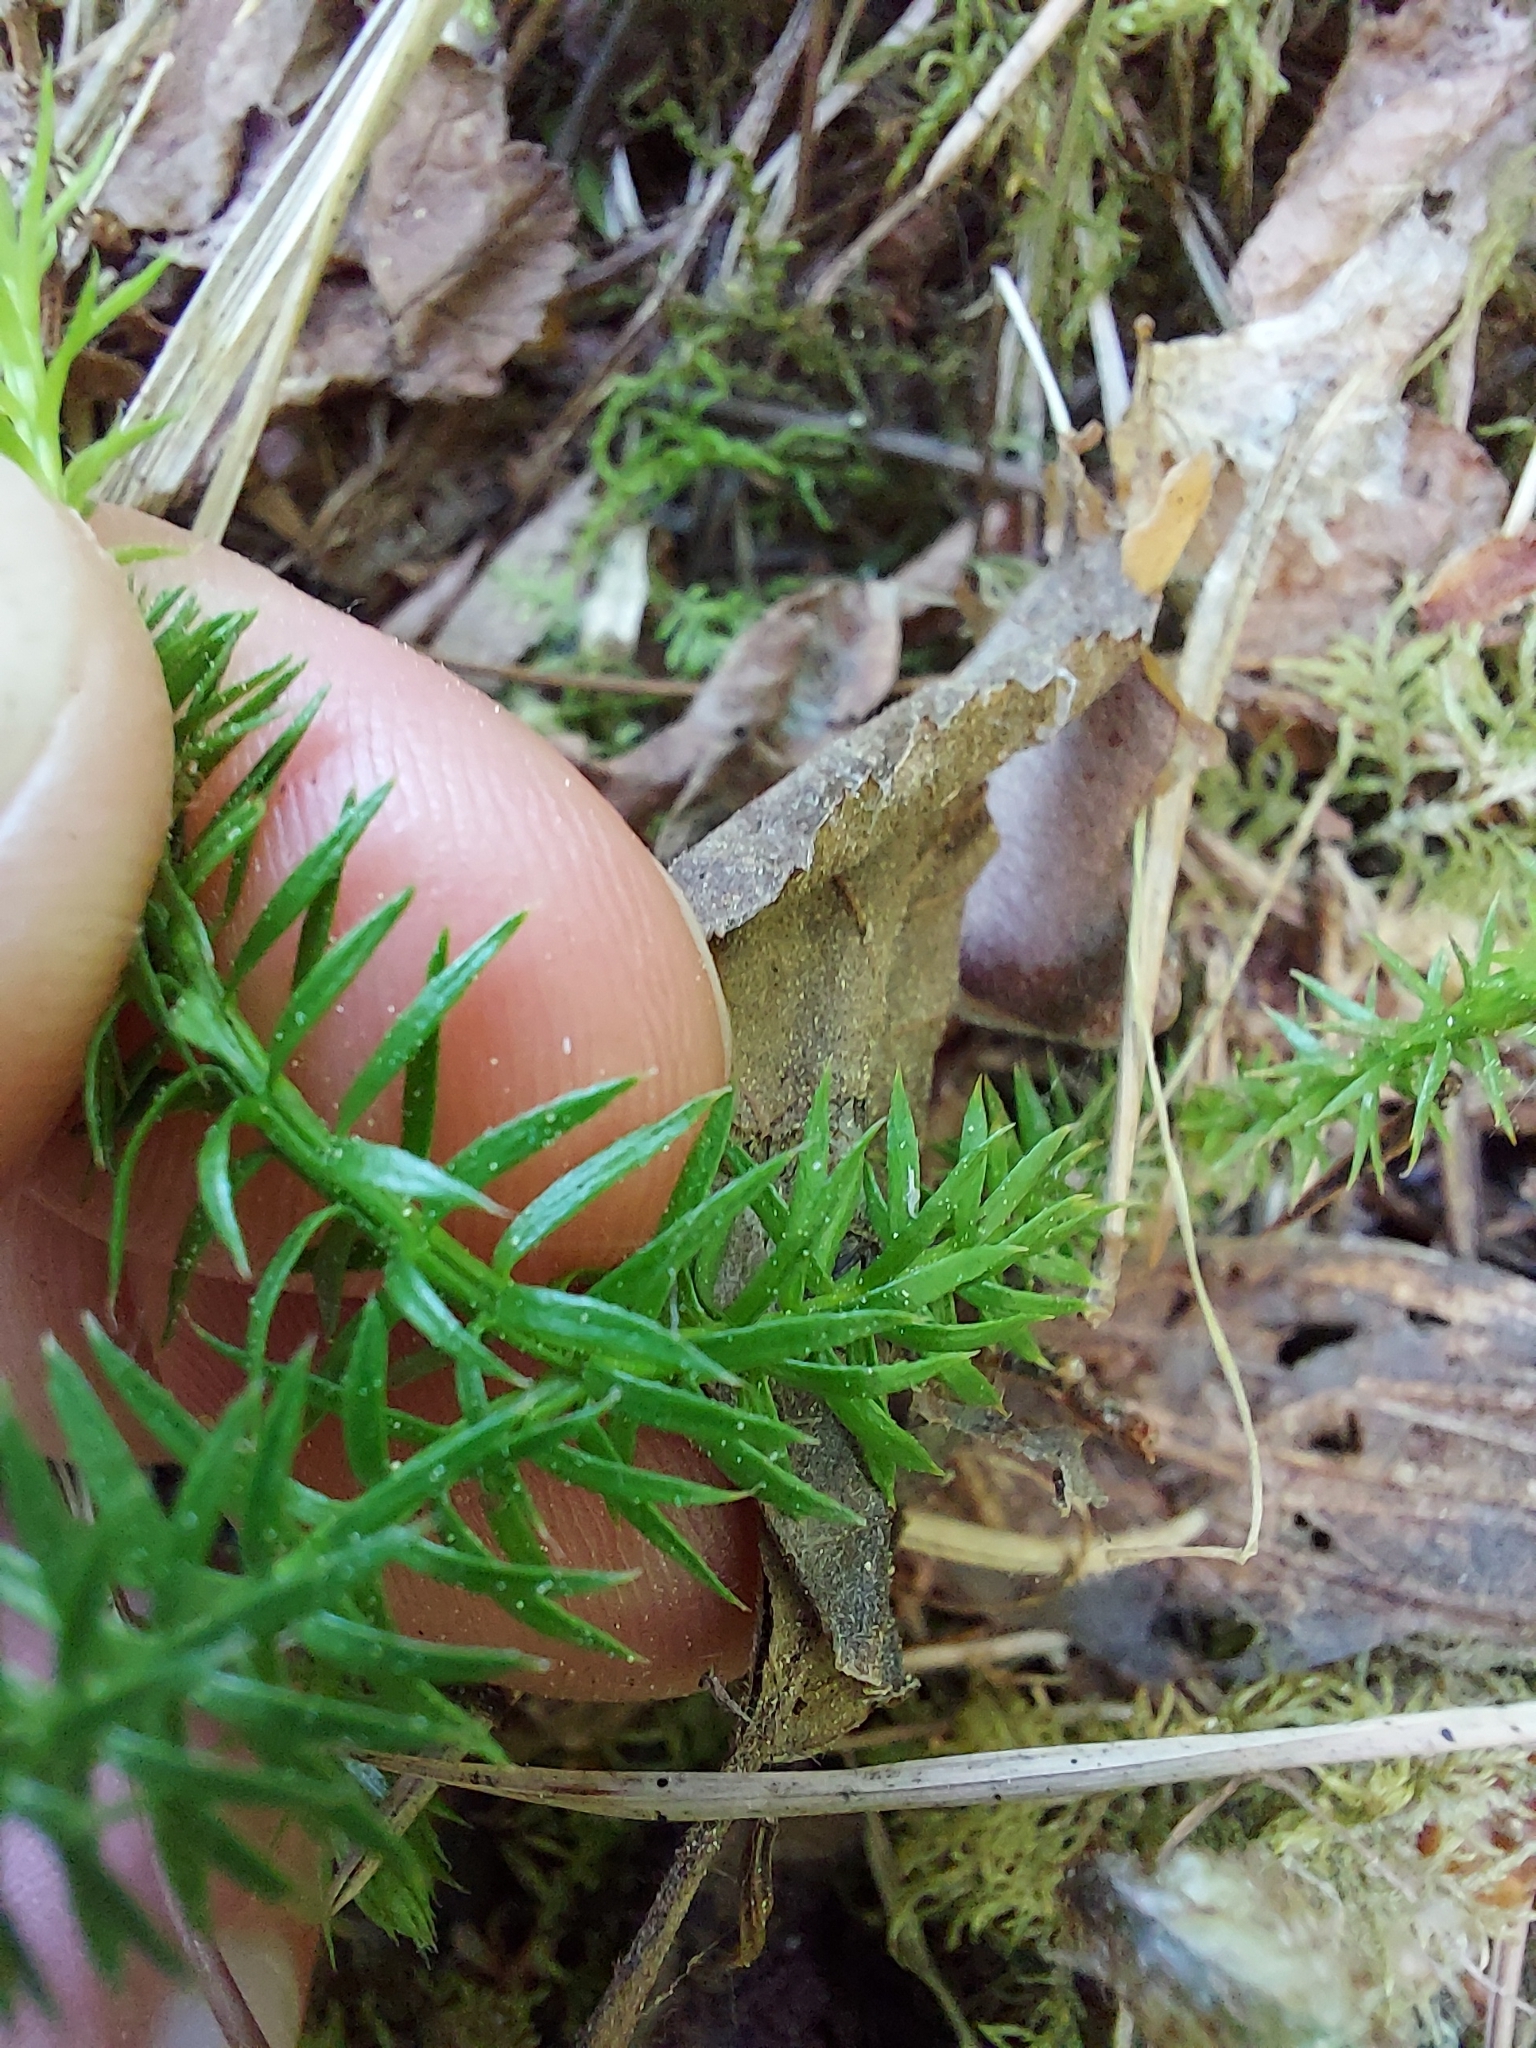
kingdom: Plantae
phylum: Tracheophyta
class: Lycopodiopsida
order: Lycopodiales
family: Lycopodiaceae
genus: Spinulum
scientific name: Spinulum annotinum
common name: Interrupted club-moss
